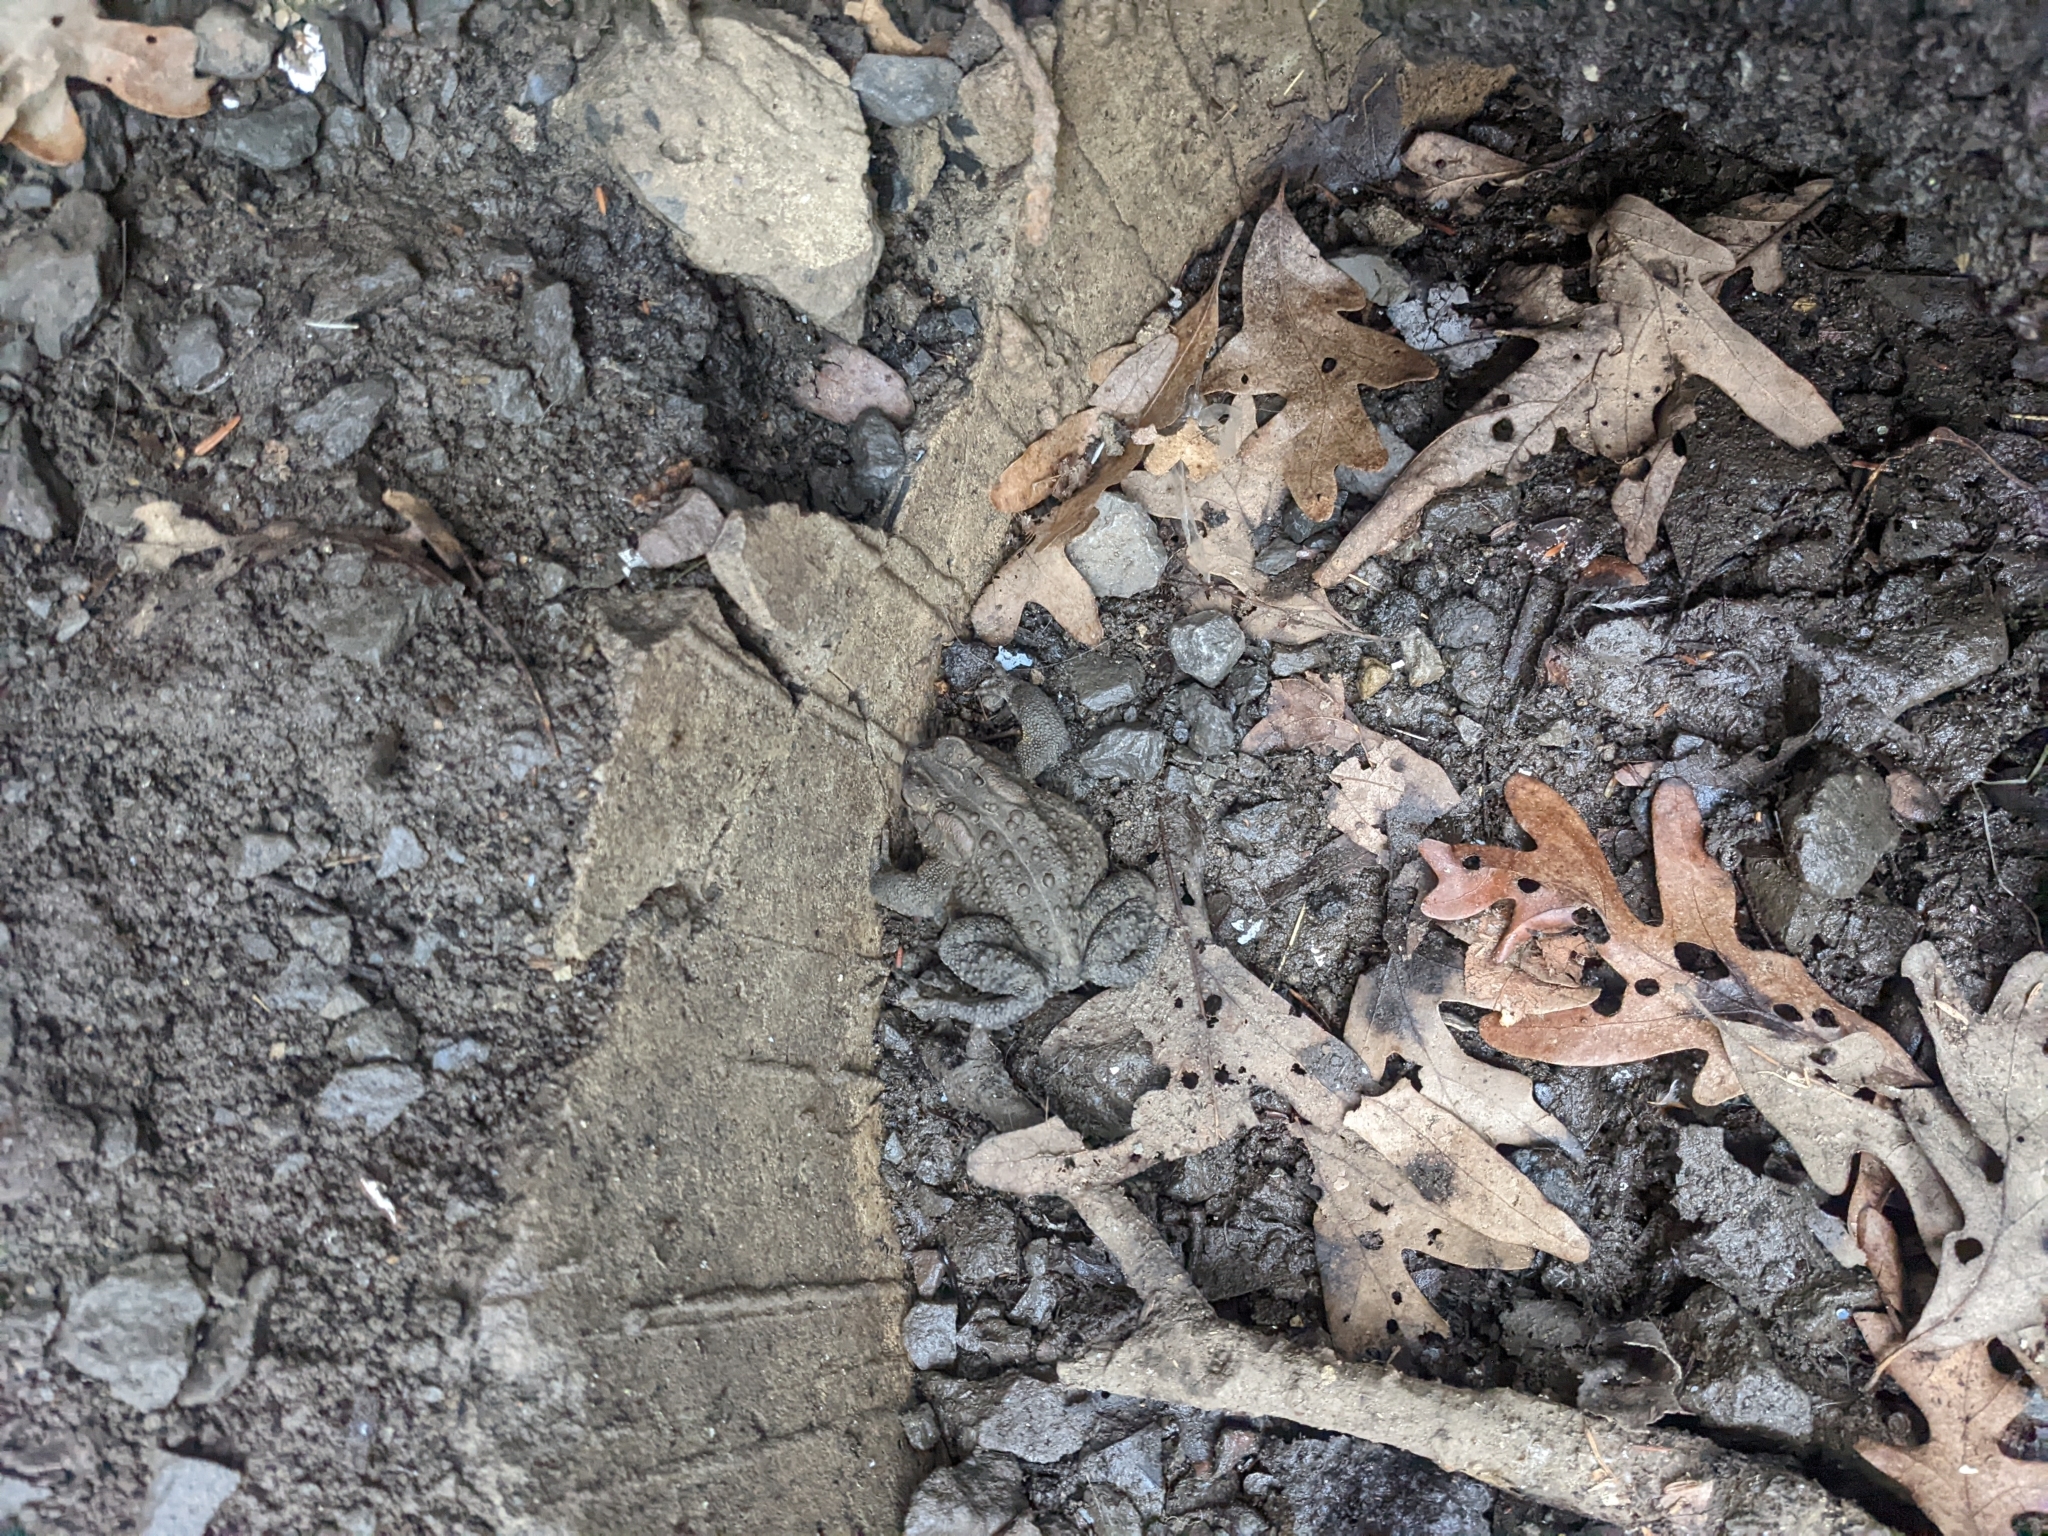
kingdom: Animalia
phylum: Chordata
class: Amphibia
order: Anura
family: Bufonidae
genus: Anaxyrus
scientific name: Anaxyrus americanus
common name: American toad
